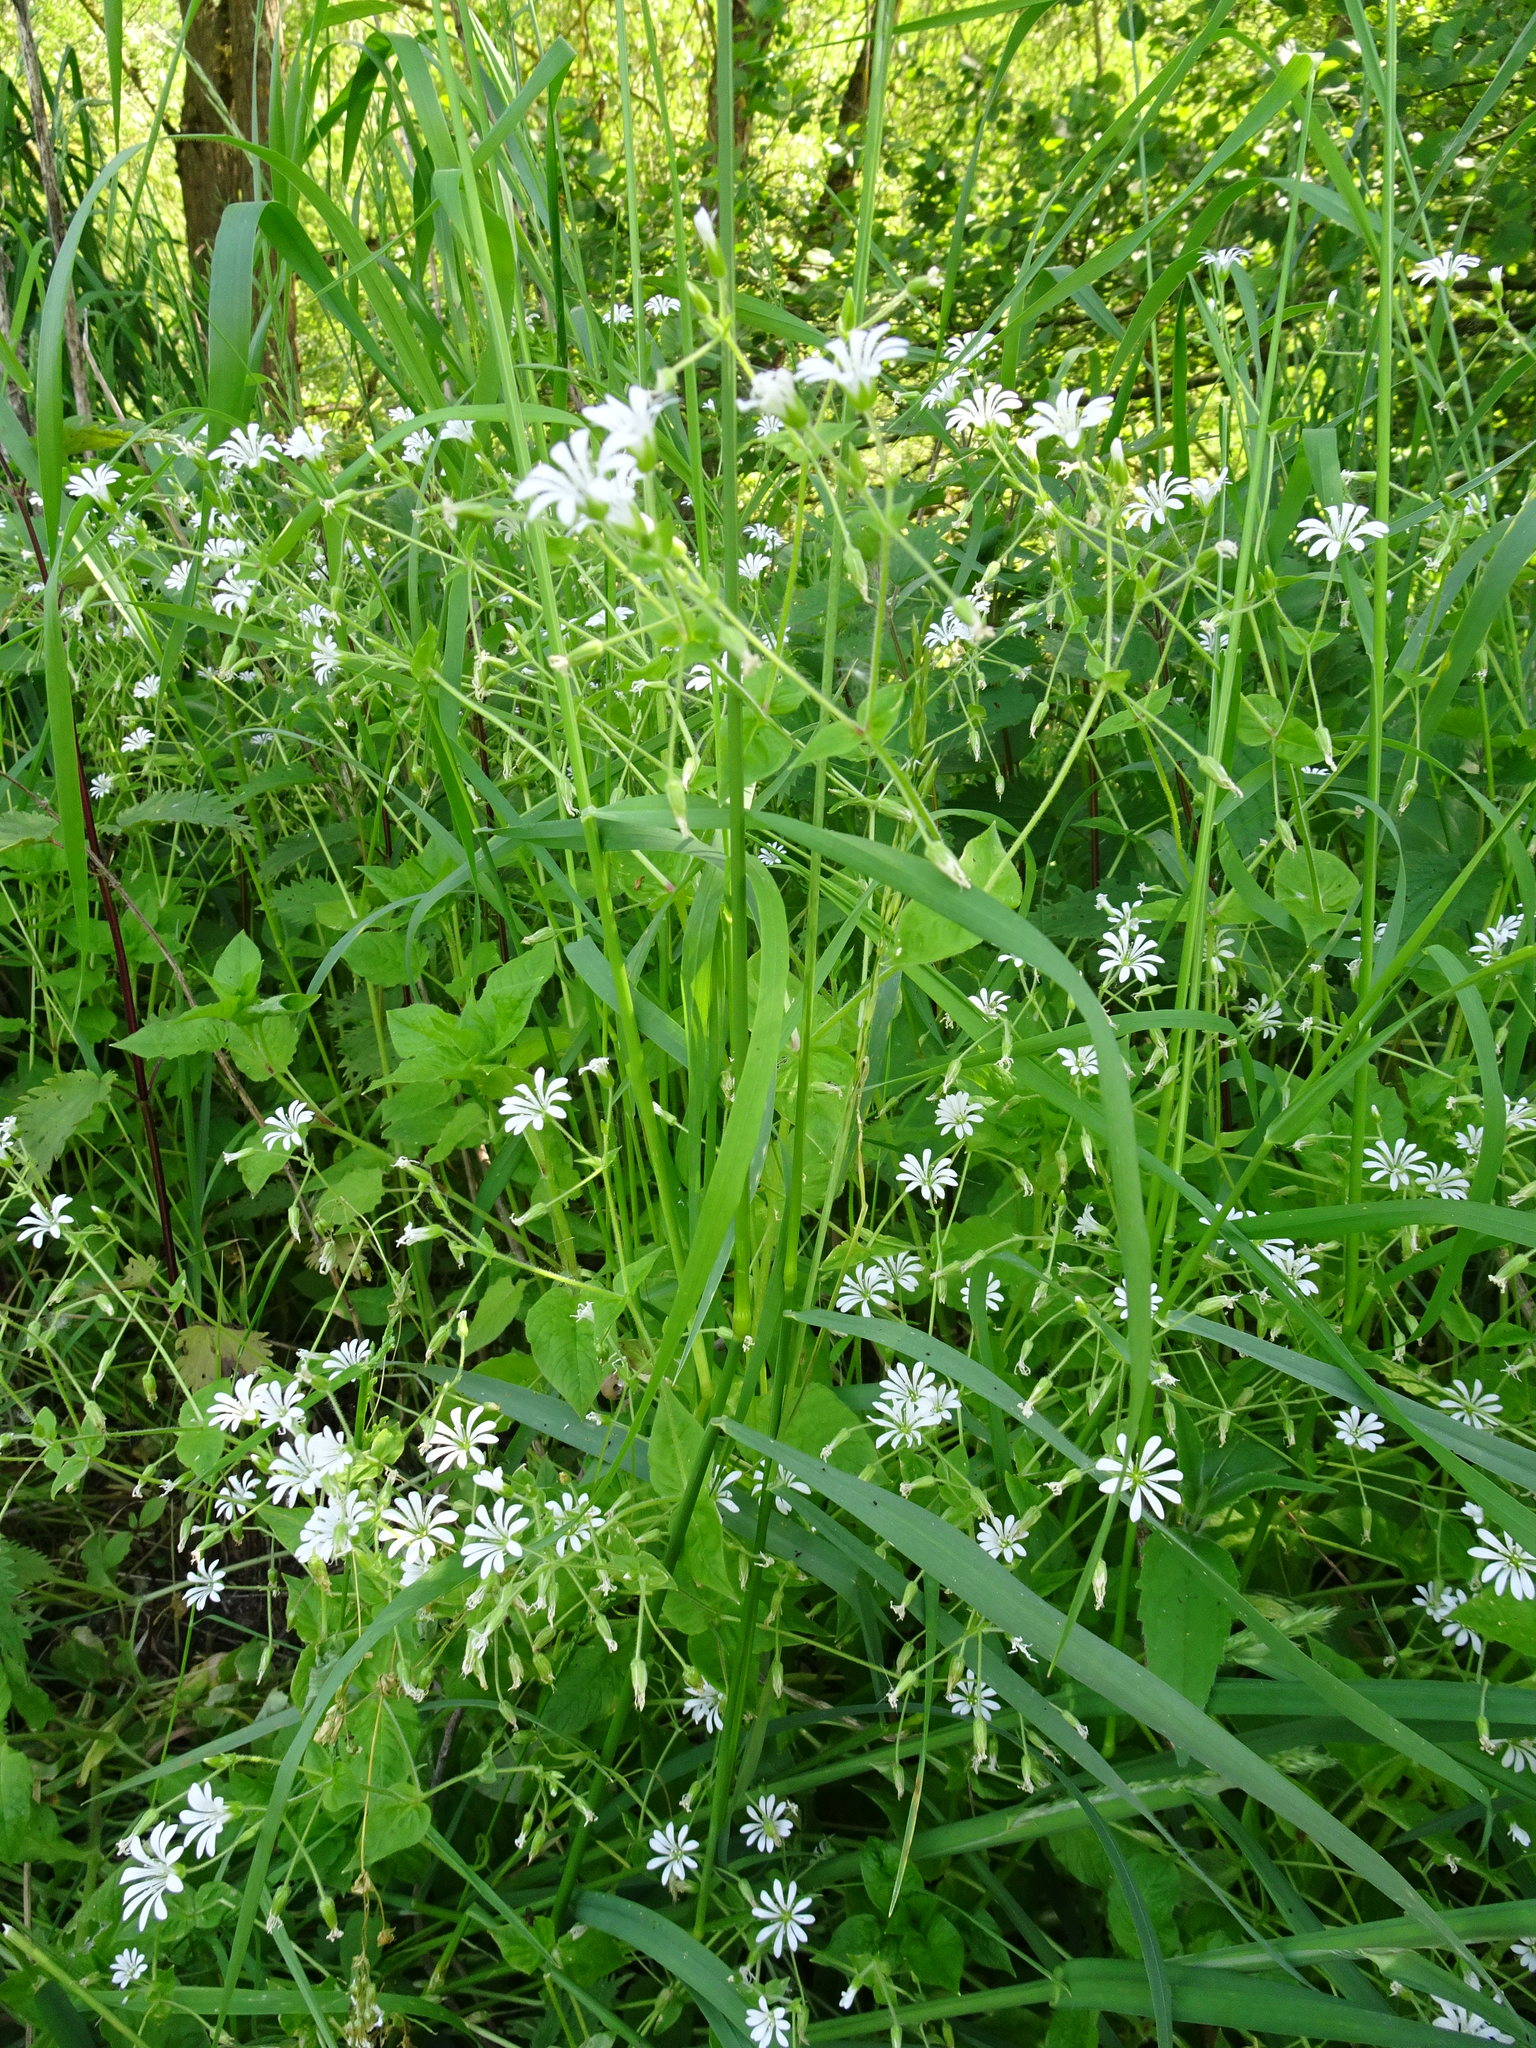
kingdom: Plantae
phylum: Tracheophyta
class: Magnoliopsida
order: Caryophyllales
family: Caryophyllaceae
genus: Stellaria
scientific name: Stellaria nemorum
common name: Wood stitchwort
